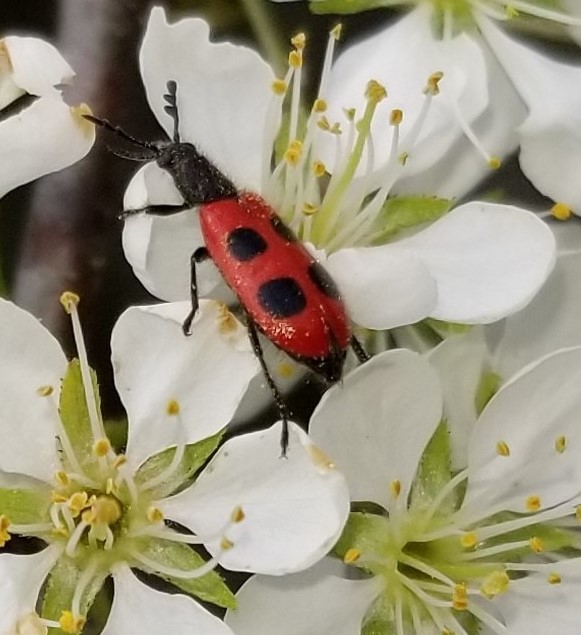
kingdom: Animalia
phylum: Arthropoda
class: Insecta
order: Coleoptera
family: Cleridae
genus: Pelonides
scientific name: Pelonides quadripunctatus
